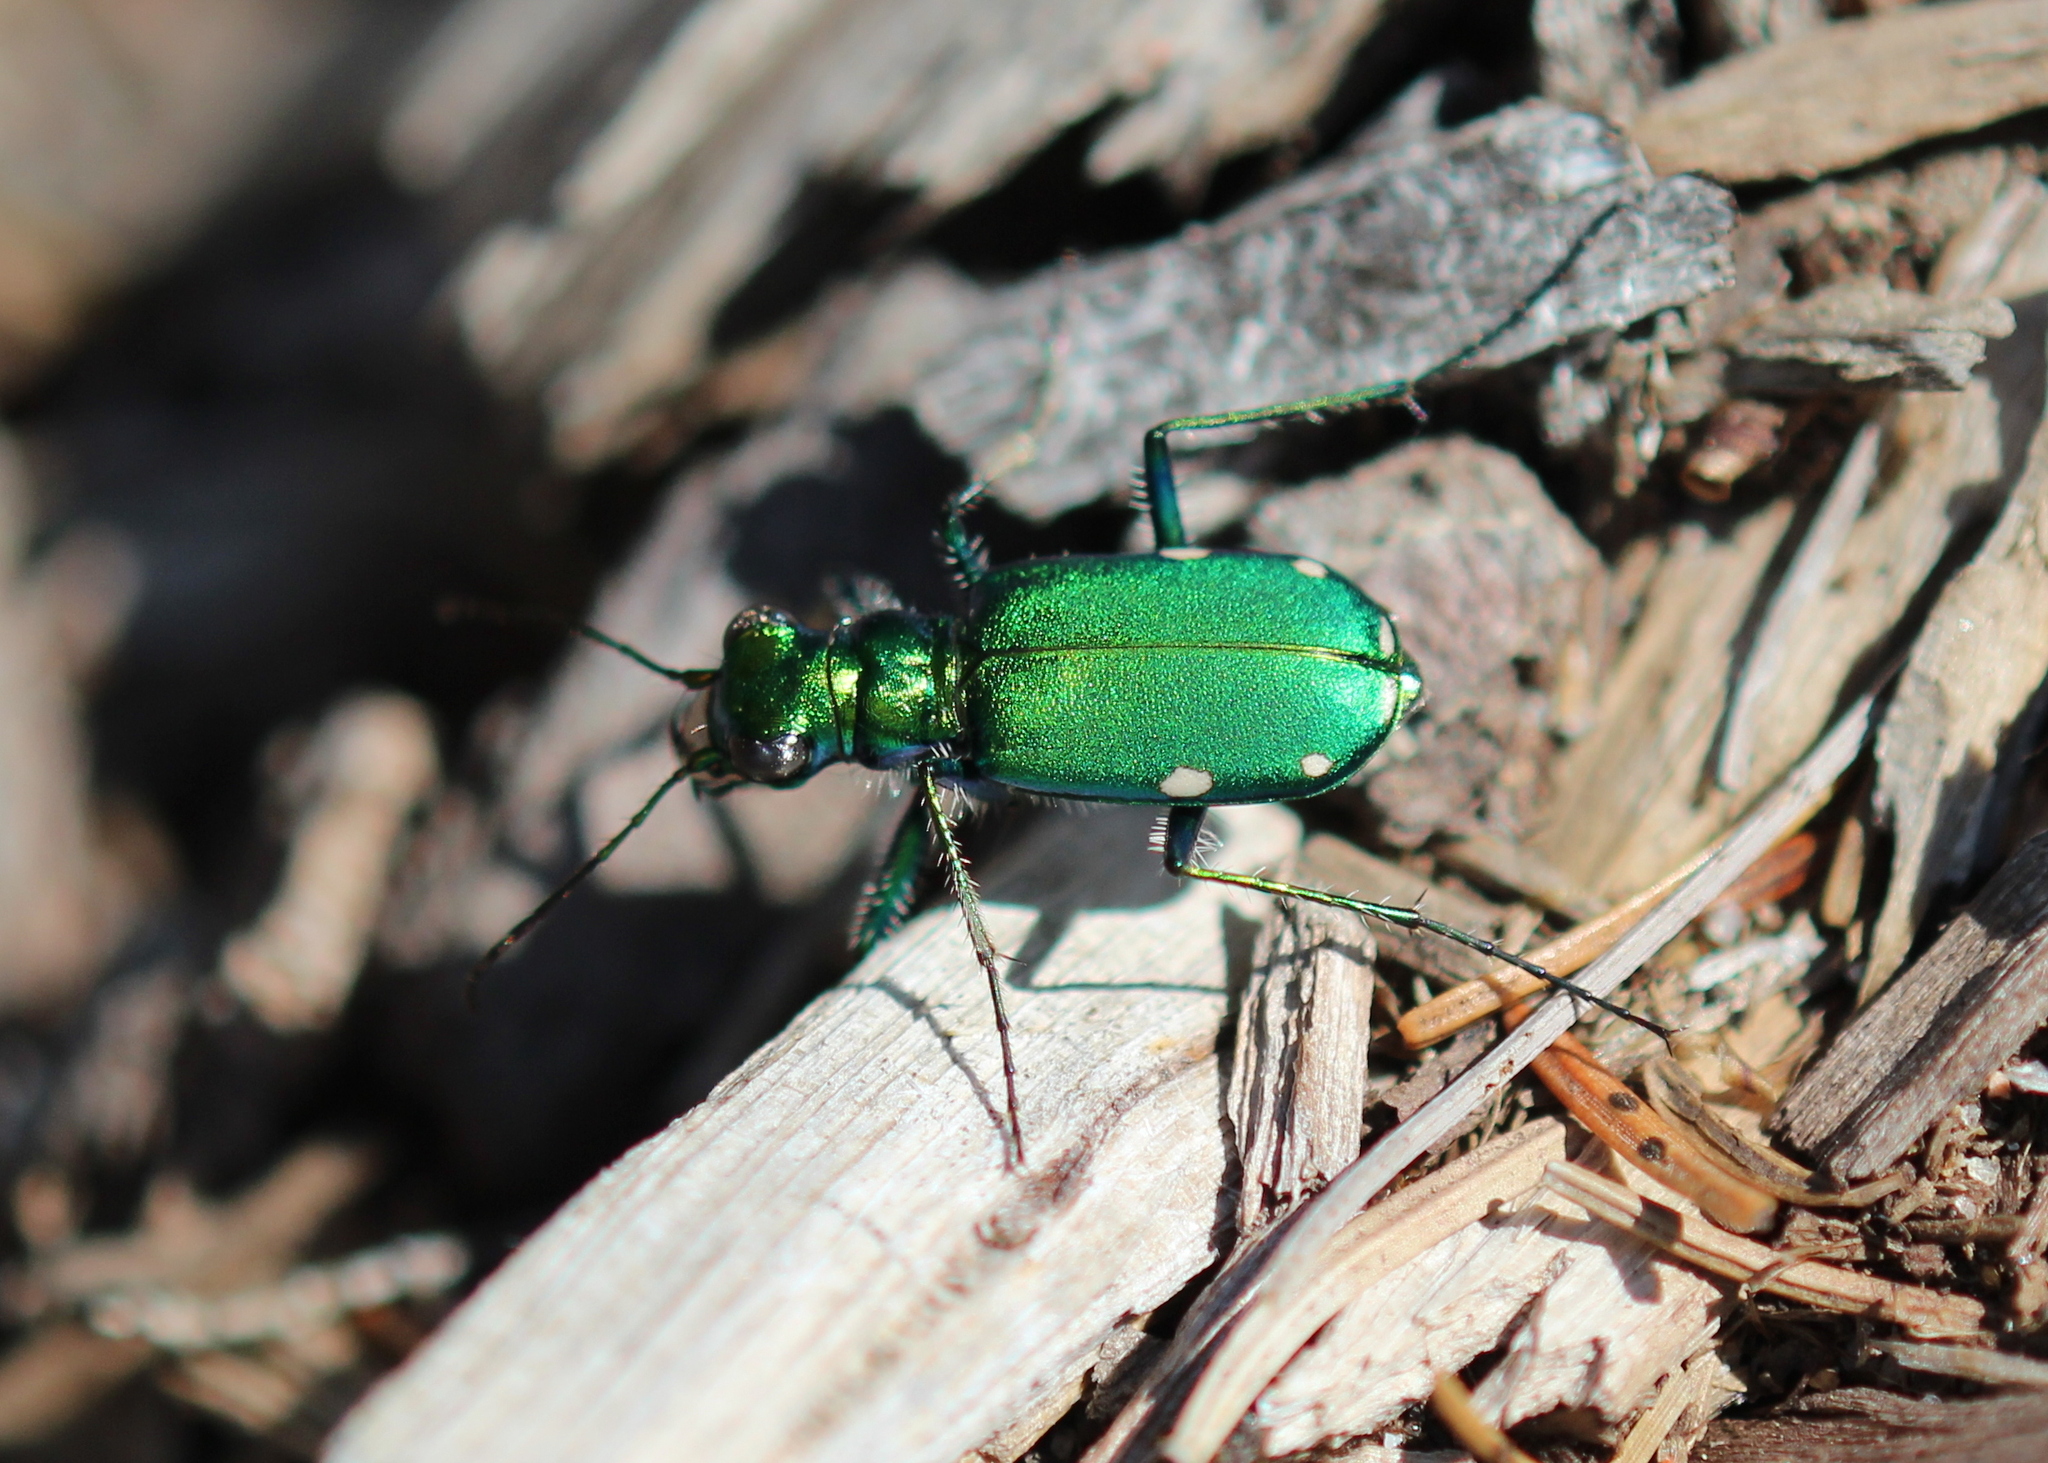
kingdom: Animalia
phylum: Arthropoda
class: Insecta
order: Coleoptera
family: Carabidae
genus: Cicindela
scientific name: Cicindela sexguttata
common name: Six-spotted tiger beetle
